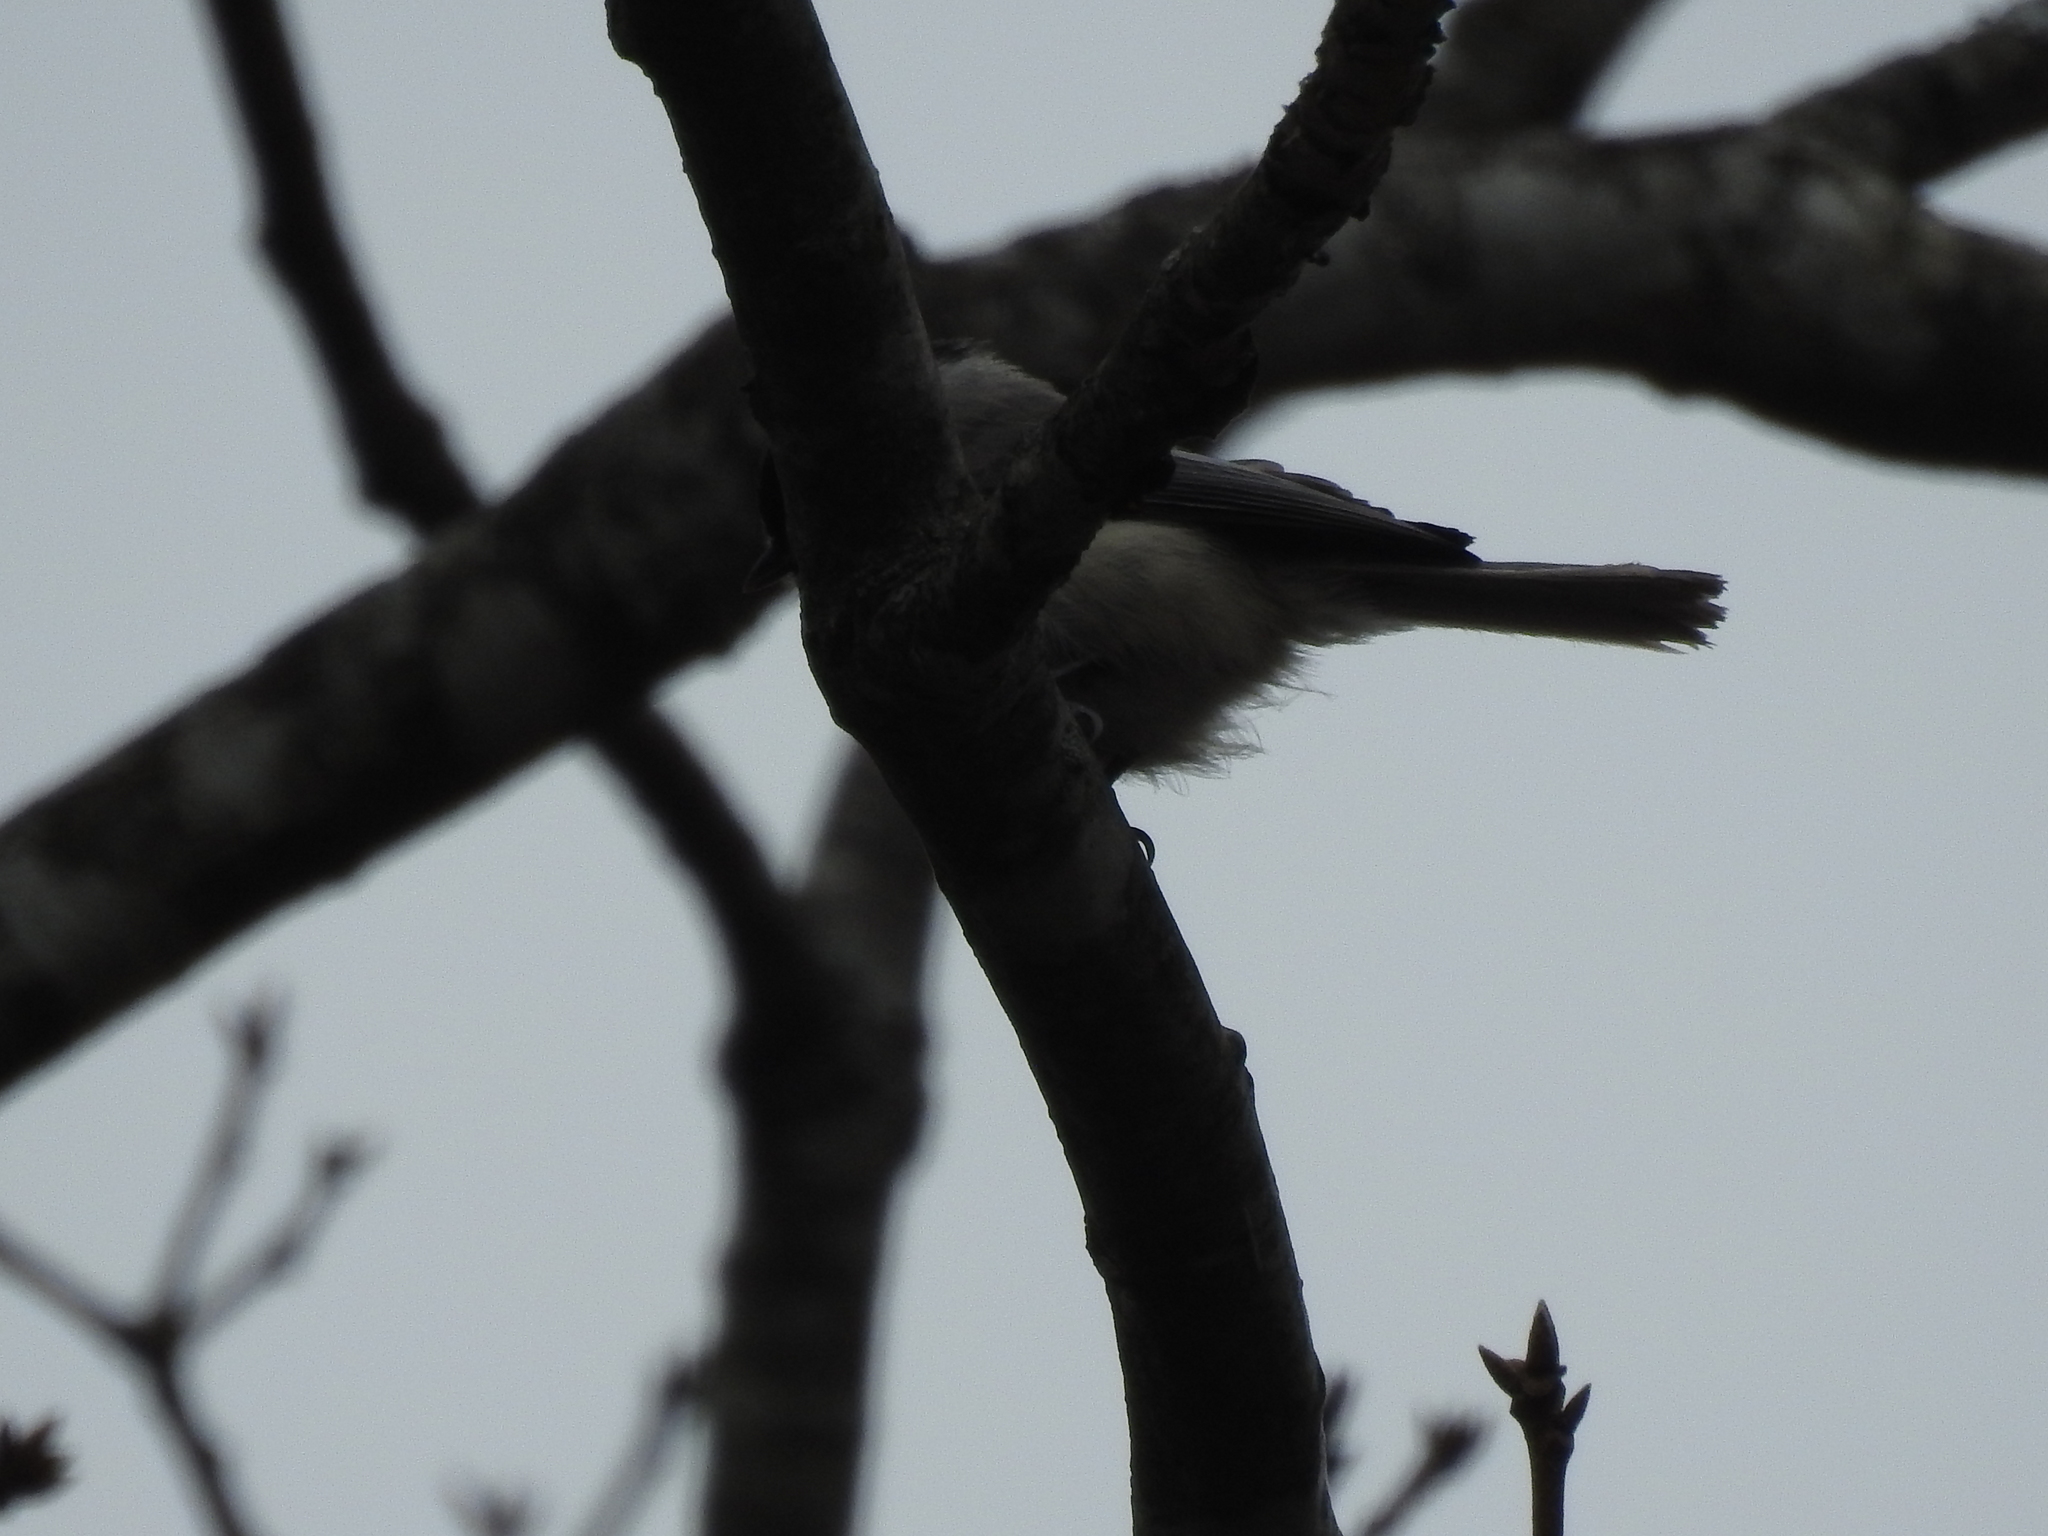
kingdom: Animalia
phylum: Chordata
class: Aves
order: Passeriformes
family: Paridae
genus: Poecile
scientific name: Poecile carolinensis
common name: Carolina chickadee
